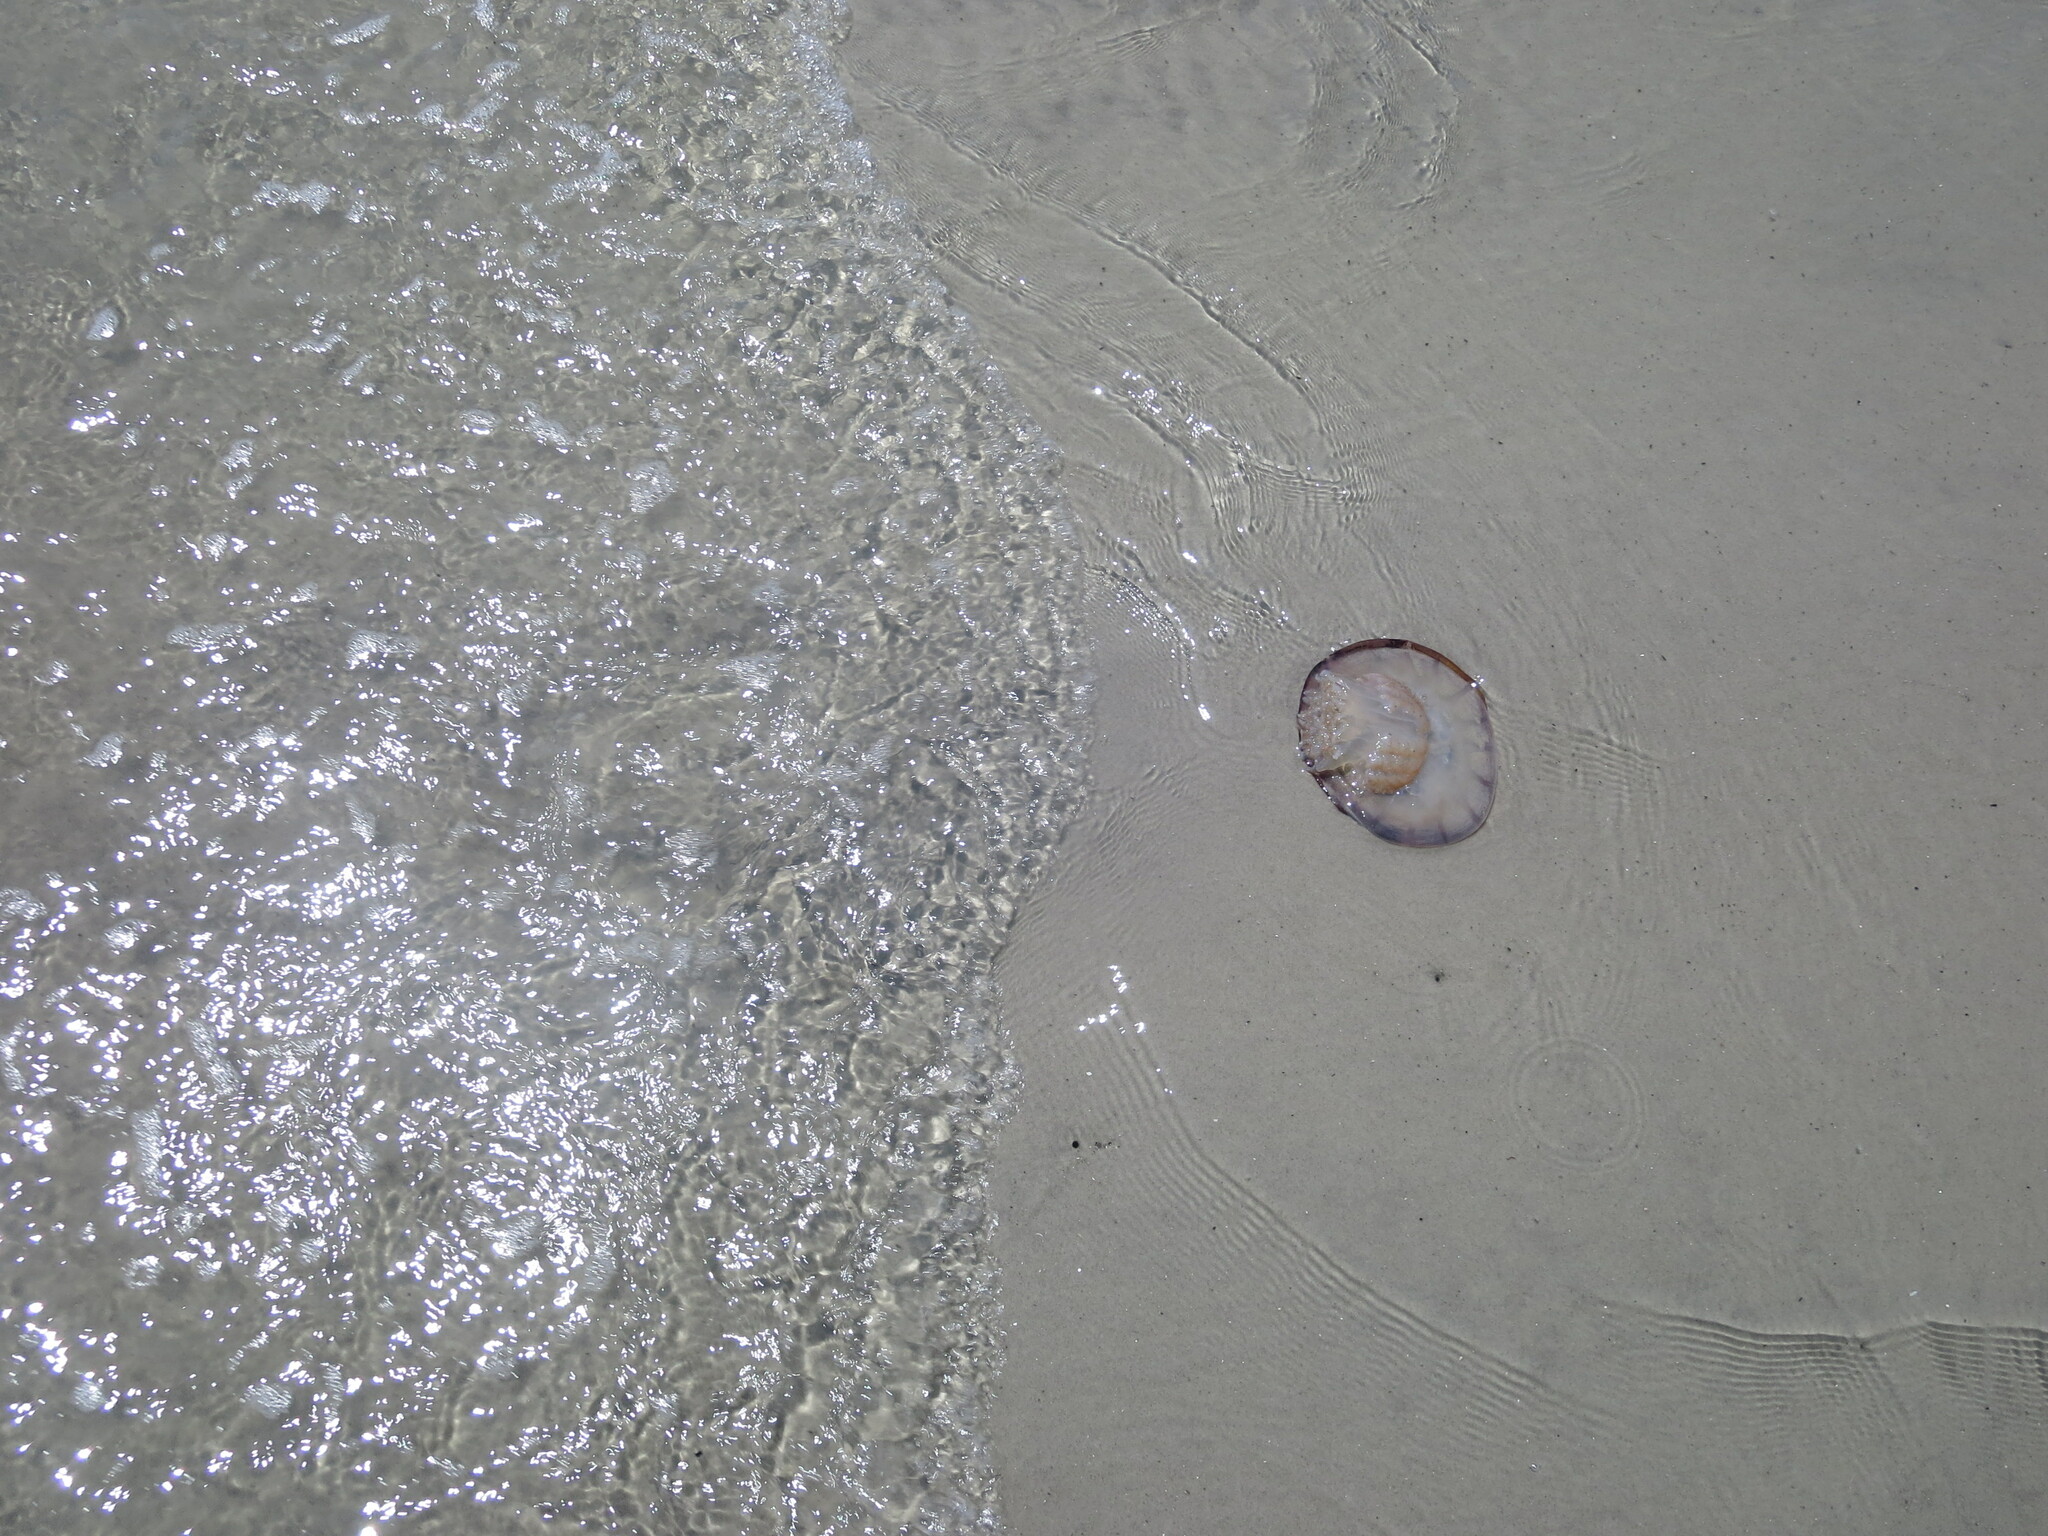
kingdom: Animalia
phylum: Cnidaria
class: Scyphozoa
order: Rhizostomeae
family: Stomolophidae
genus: Stomolophus
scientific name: Stomolophus meleagris
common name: Cabbagehead
